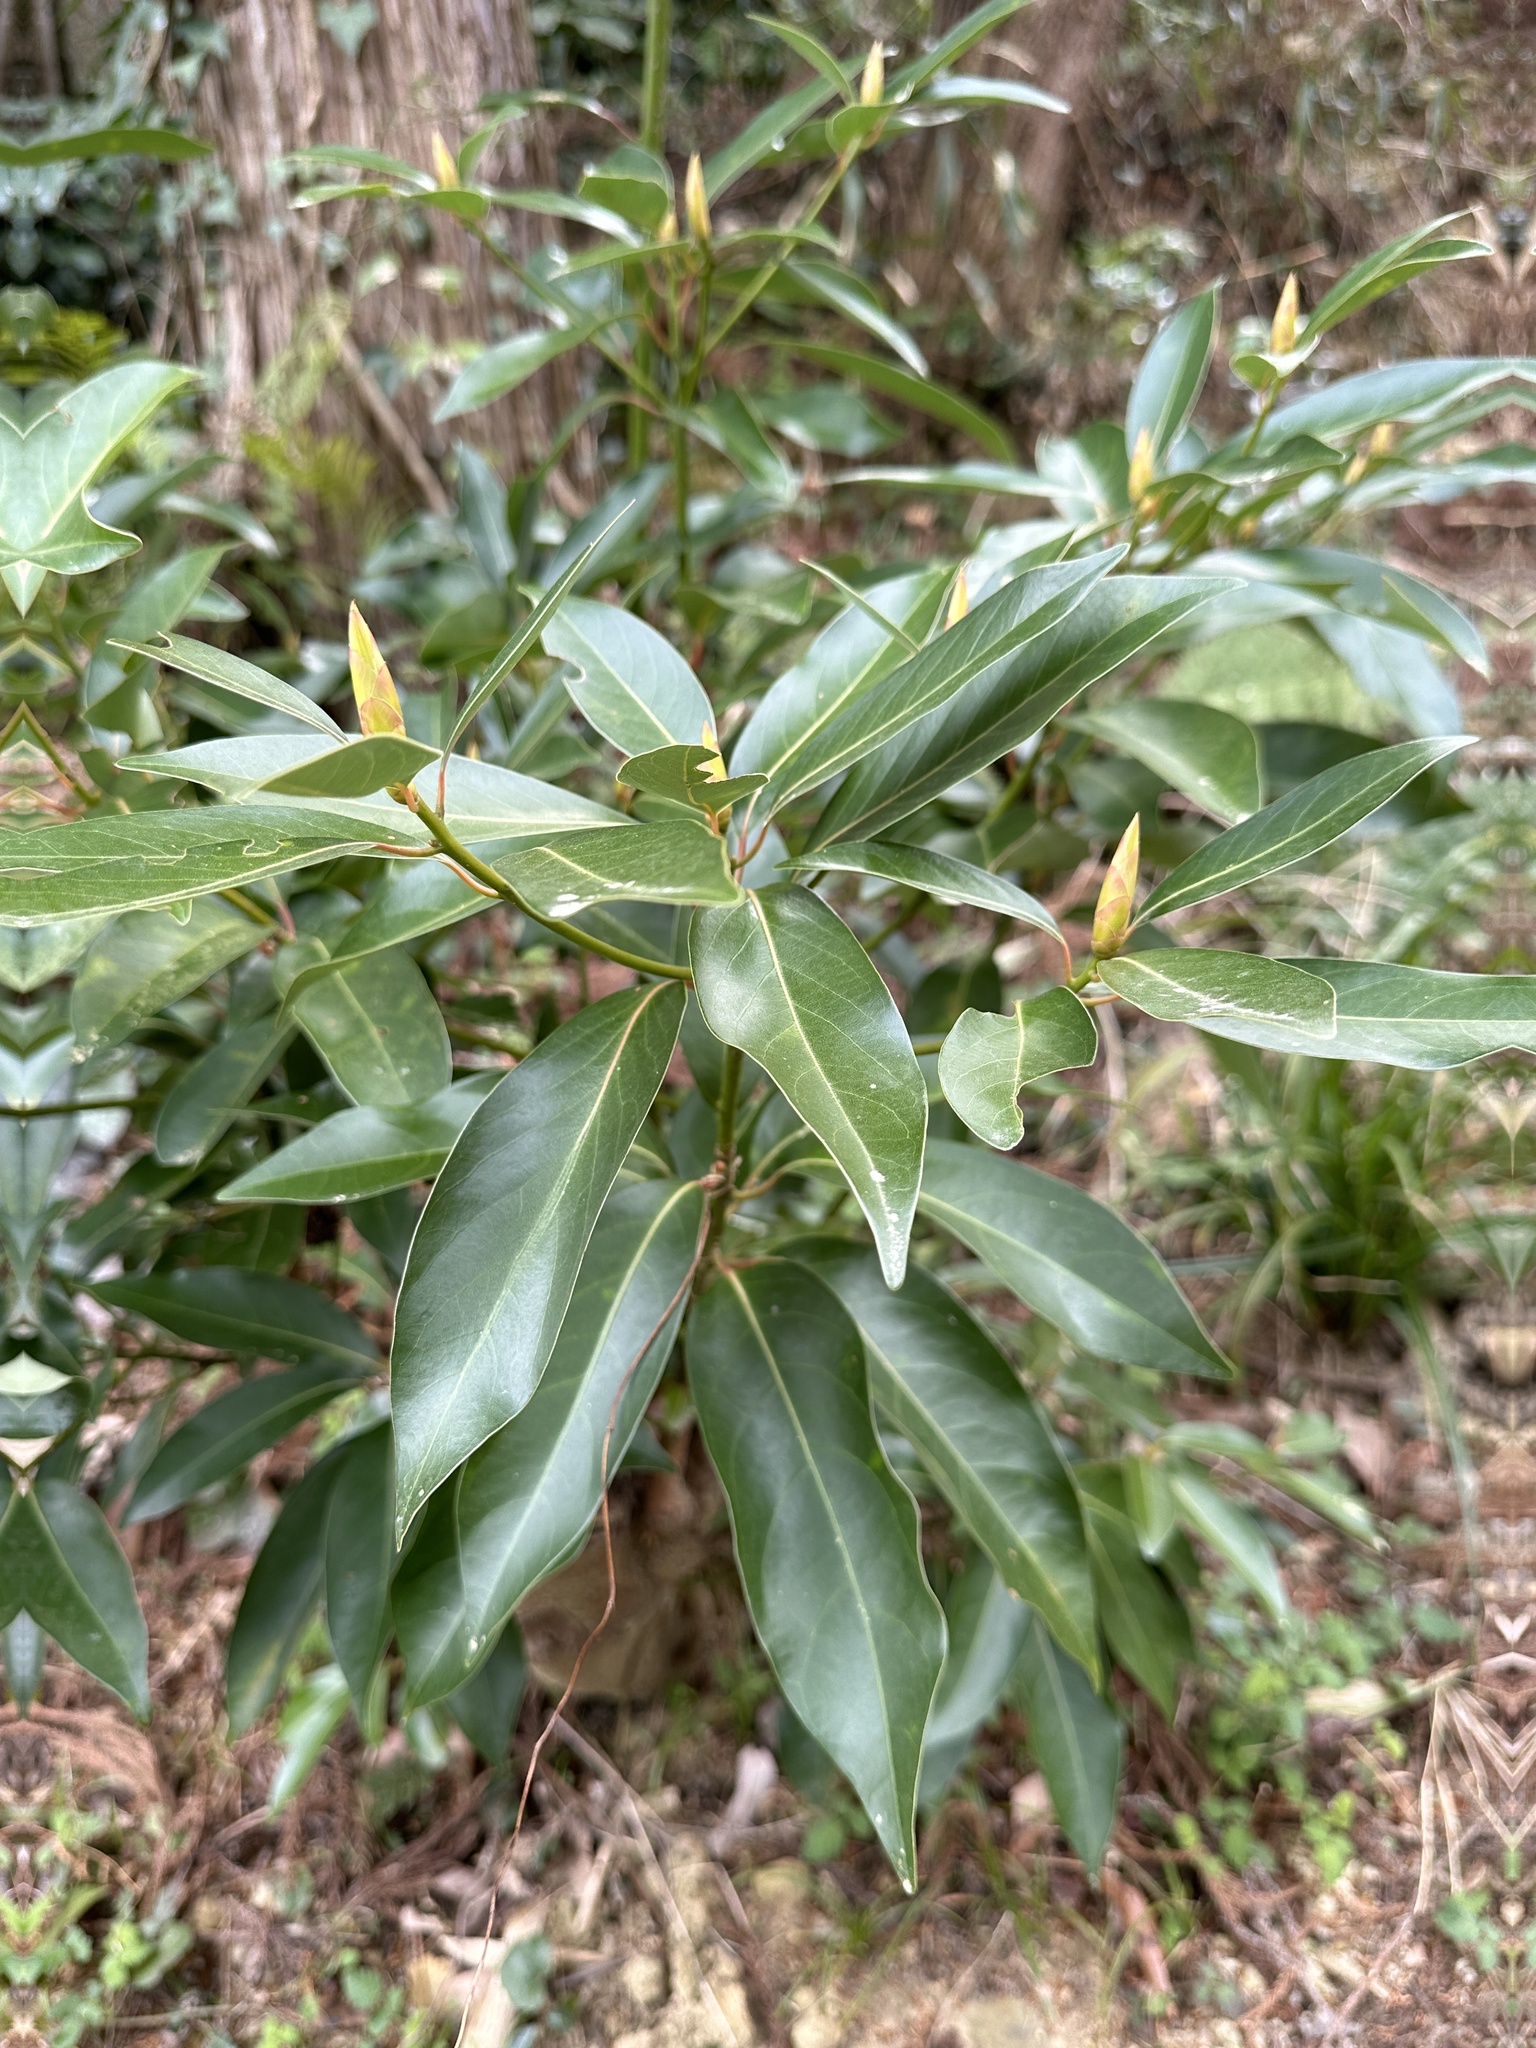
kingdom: Plantae
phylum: Tracheophyta
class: Magnoliopsida
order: Laurales
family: Lauraceae
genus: Machilus
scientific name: Machilus thunbergii
